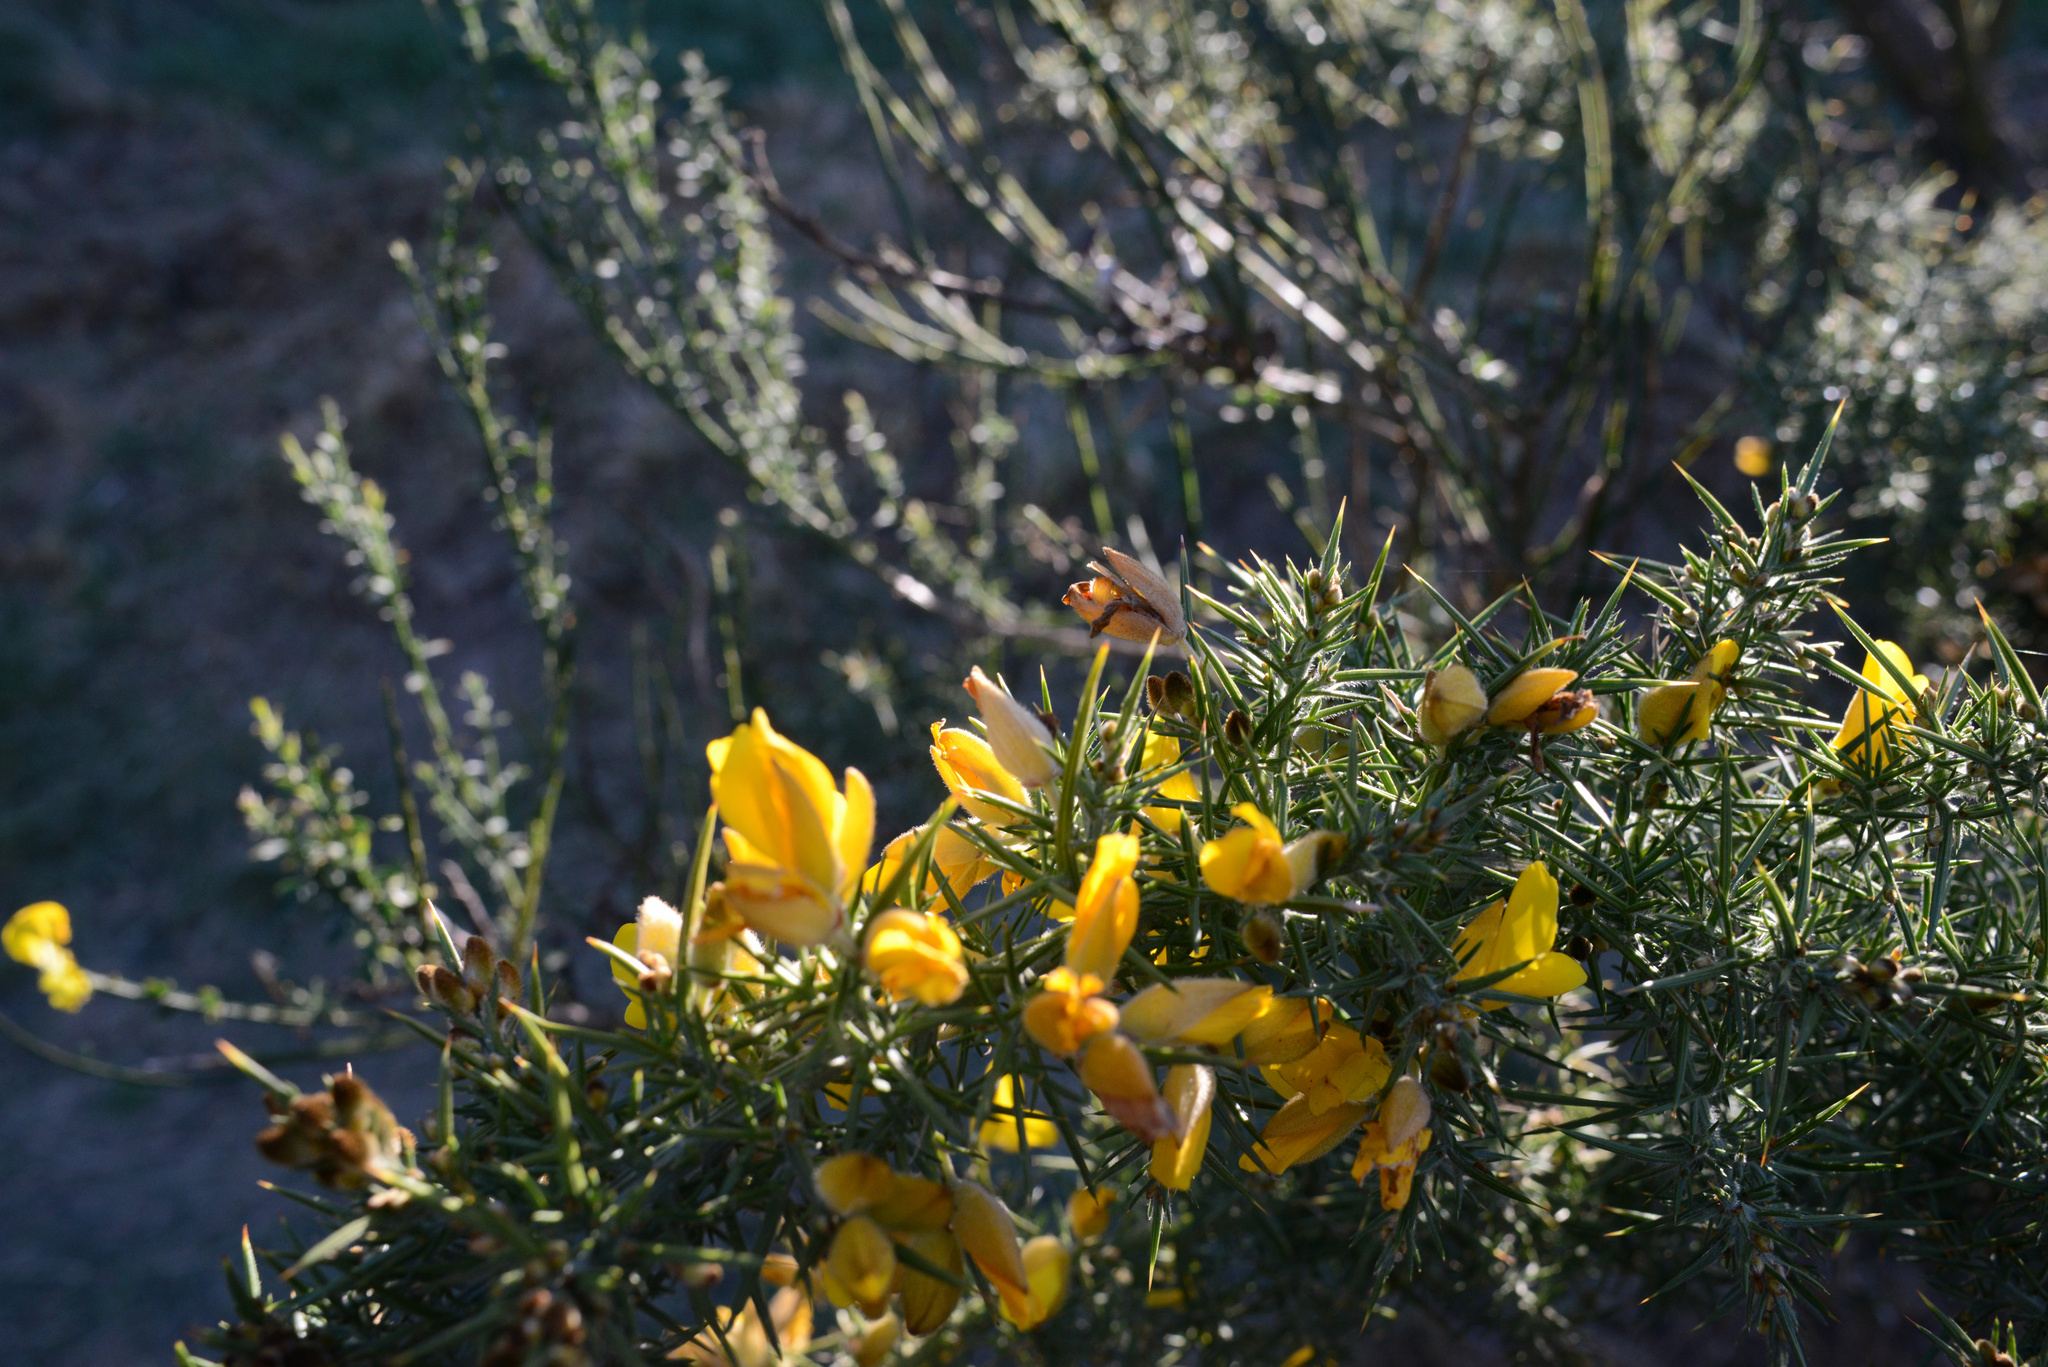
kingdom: Plantae
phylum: Tracheophyta
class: Magnoliopsida
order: Fabales
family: Fabaceae
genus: Ulex
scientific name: Ulex europaeus
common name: Common gorse
